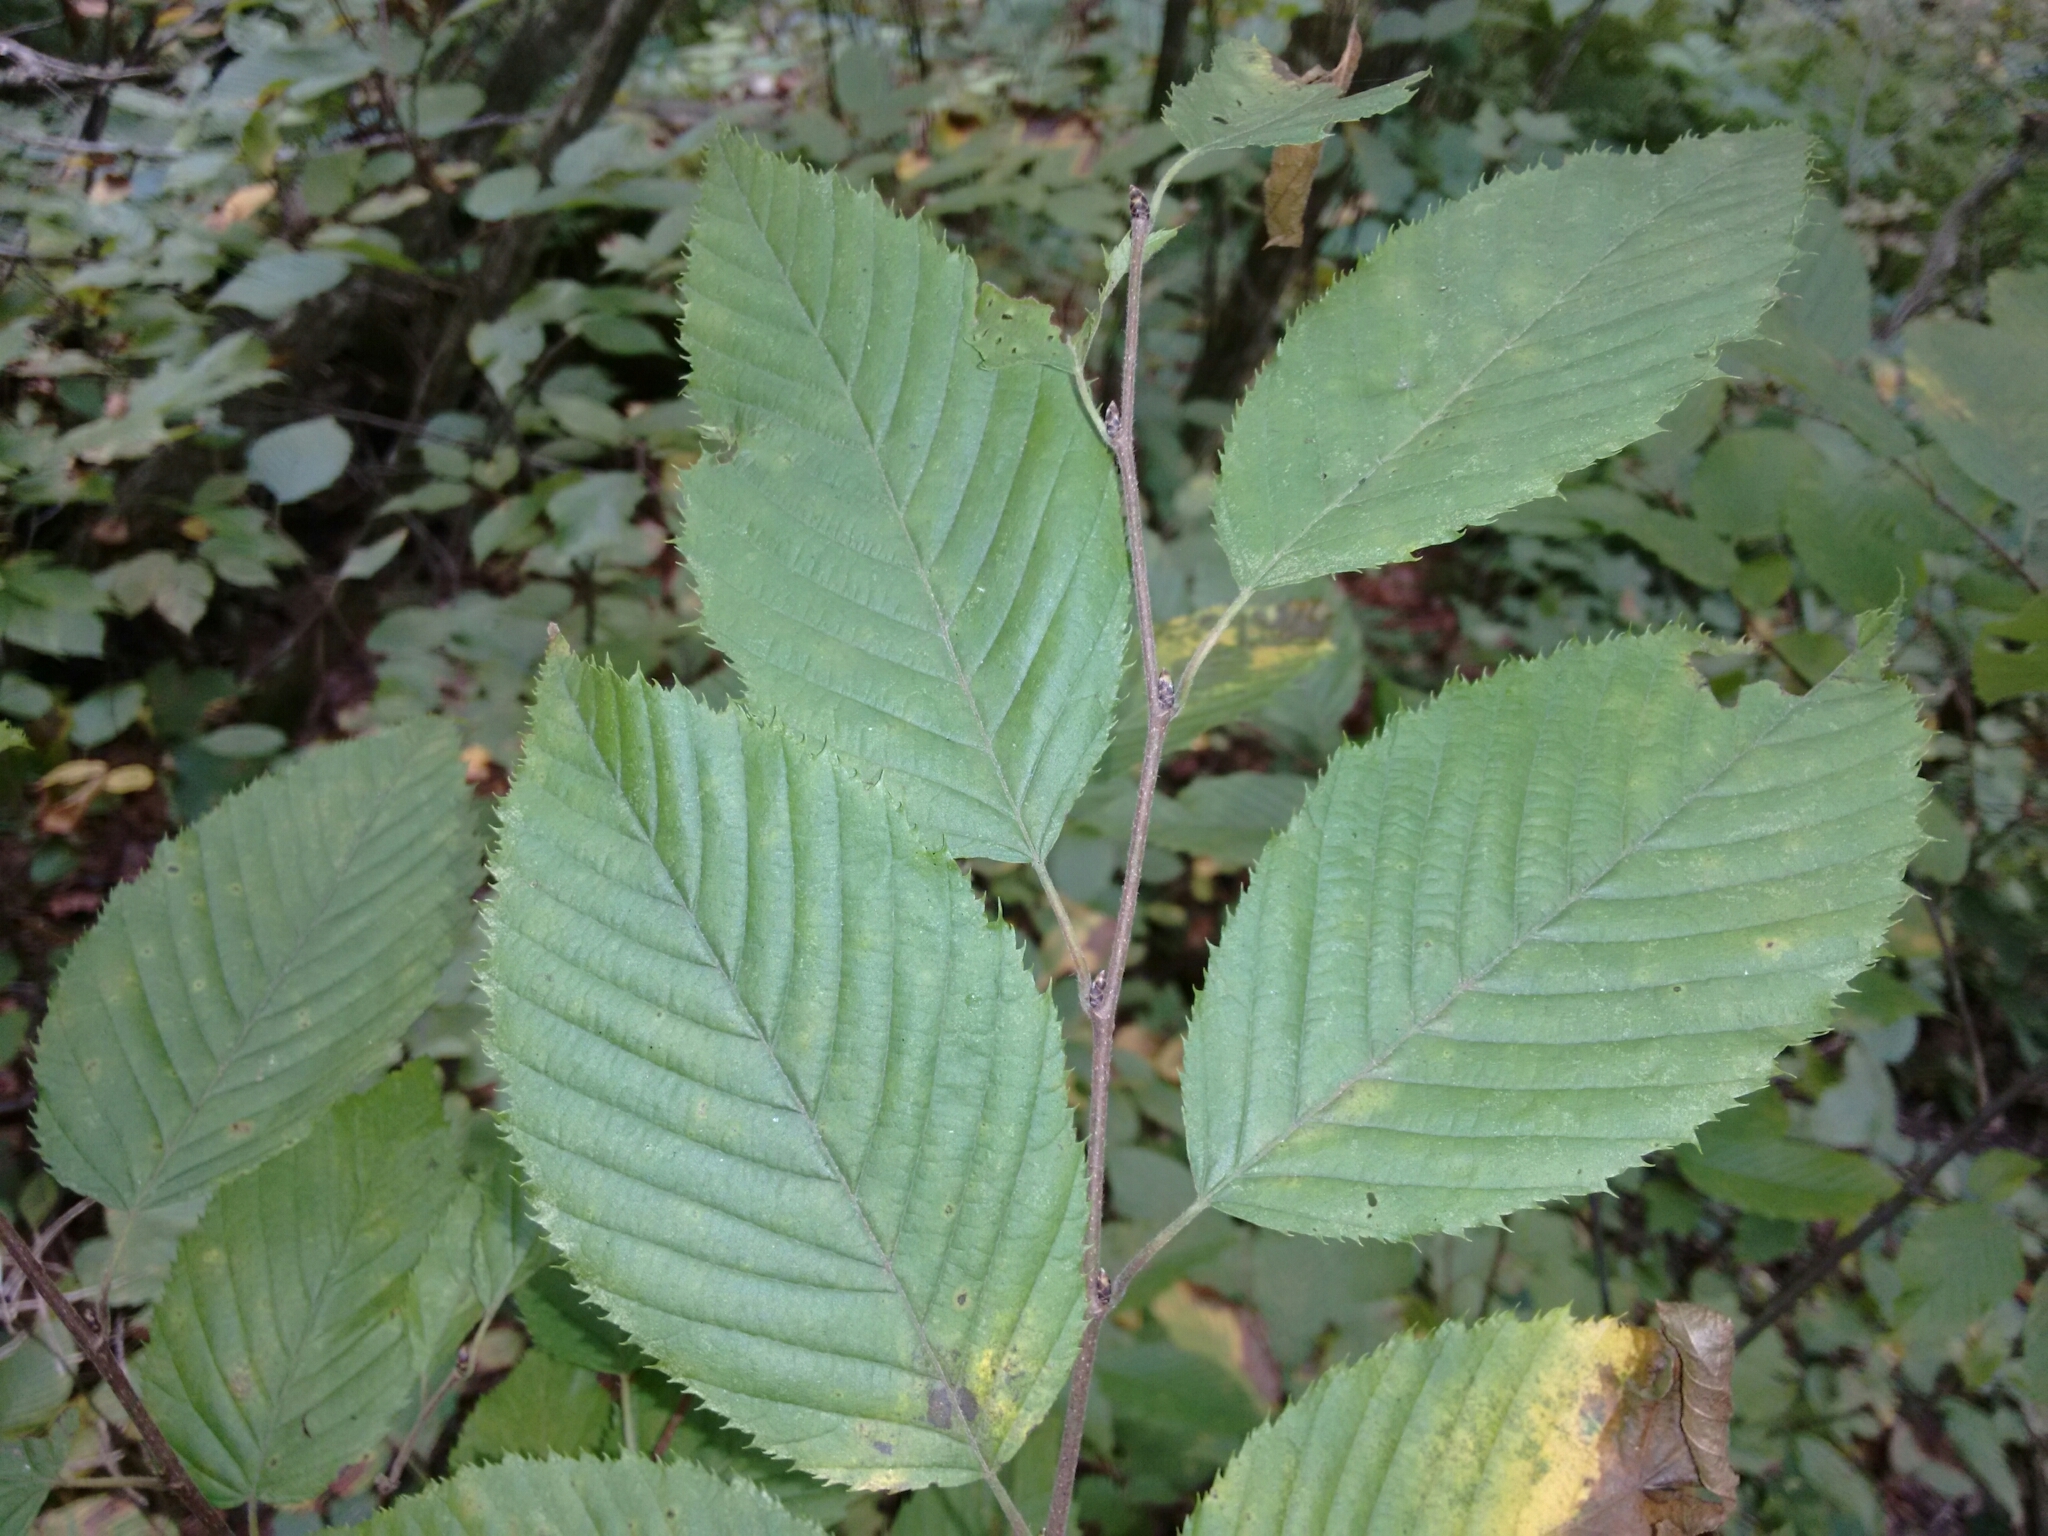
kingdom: Plantae
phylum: Tracheophyta
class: Magnoliopsida
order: Fagales
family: Betulaceae
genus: Carpinus
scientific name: Carpinus caroliniana
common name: American hornbeam
